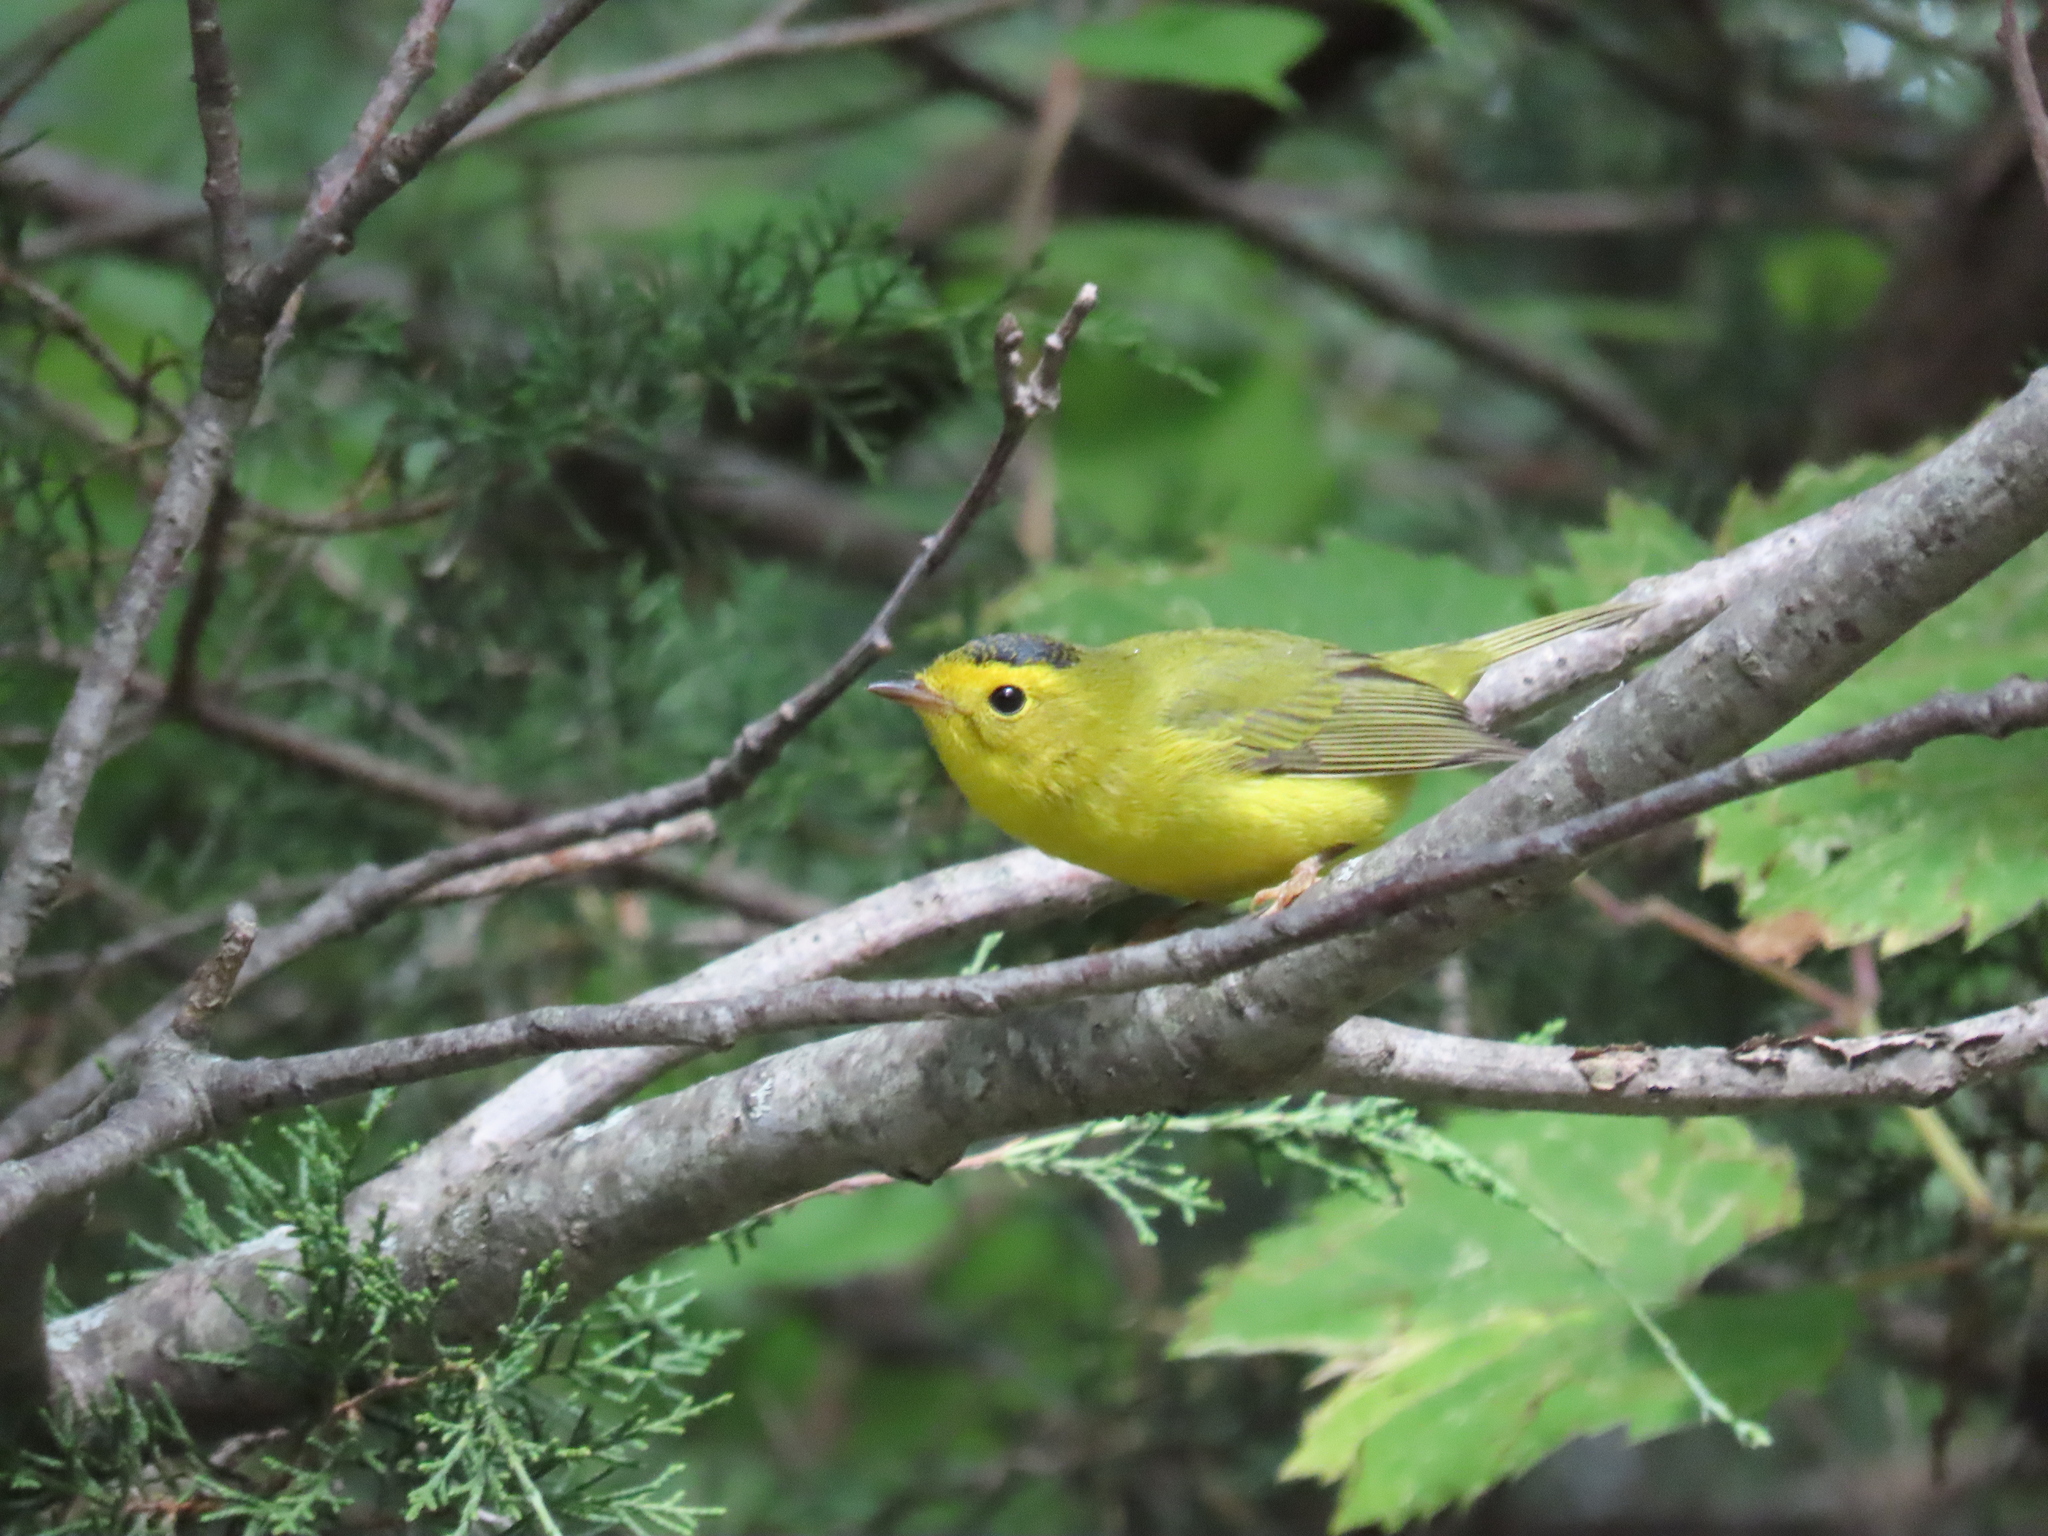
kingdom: Animalia
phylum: Chordata
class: Aves
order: Passeriformes
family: Parulidae
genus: Cardellina
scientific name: Cardellina pusilla
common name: Wilson's warbler
